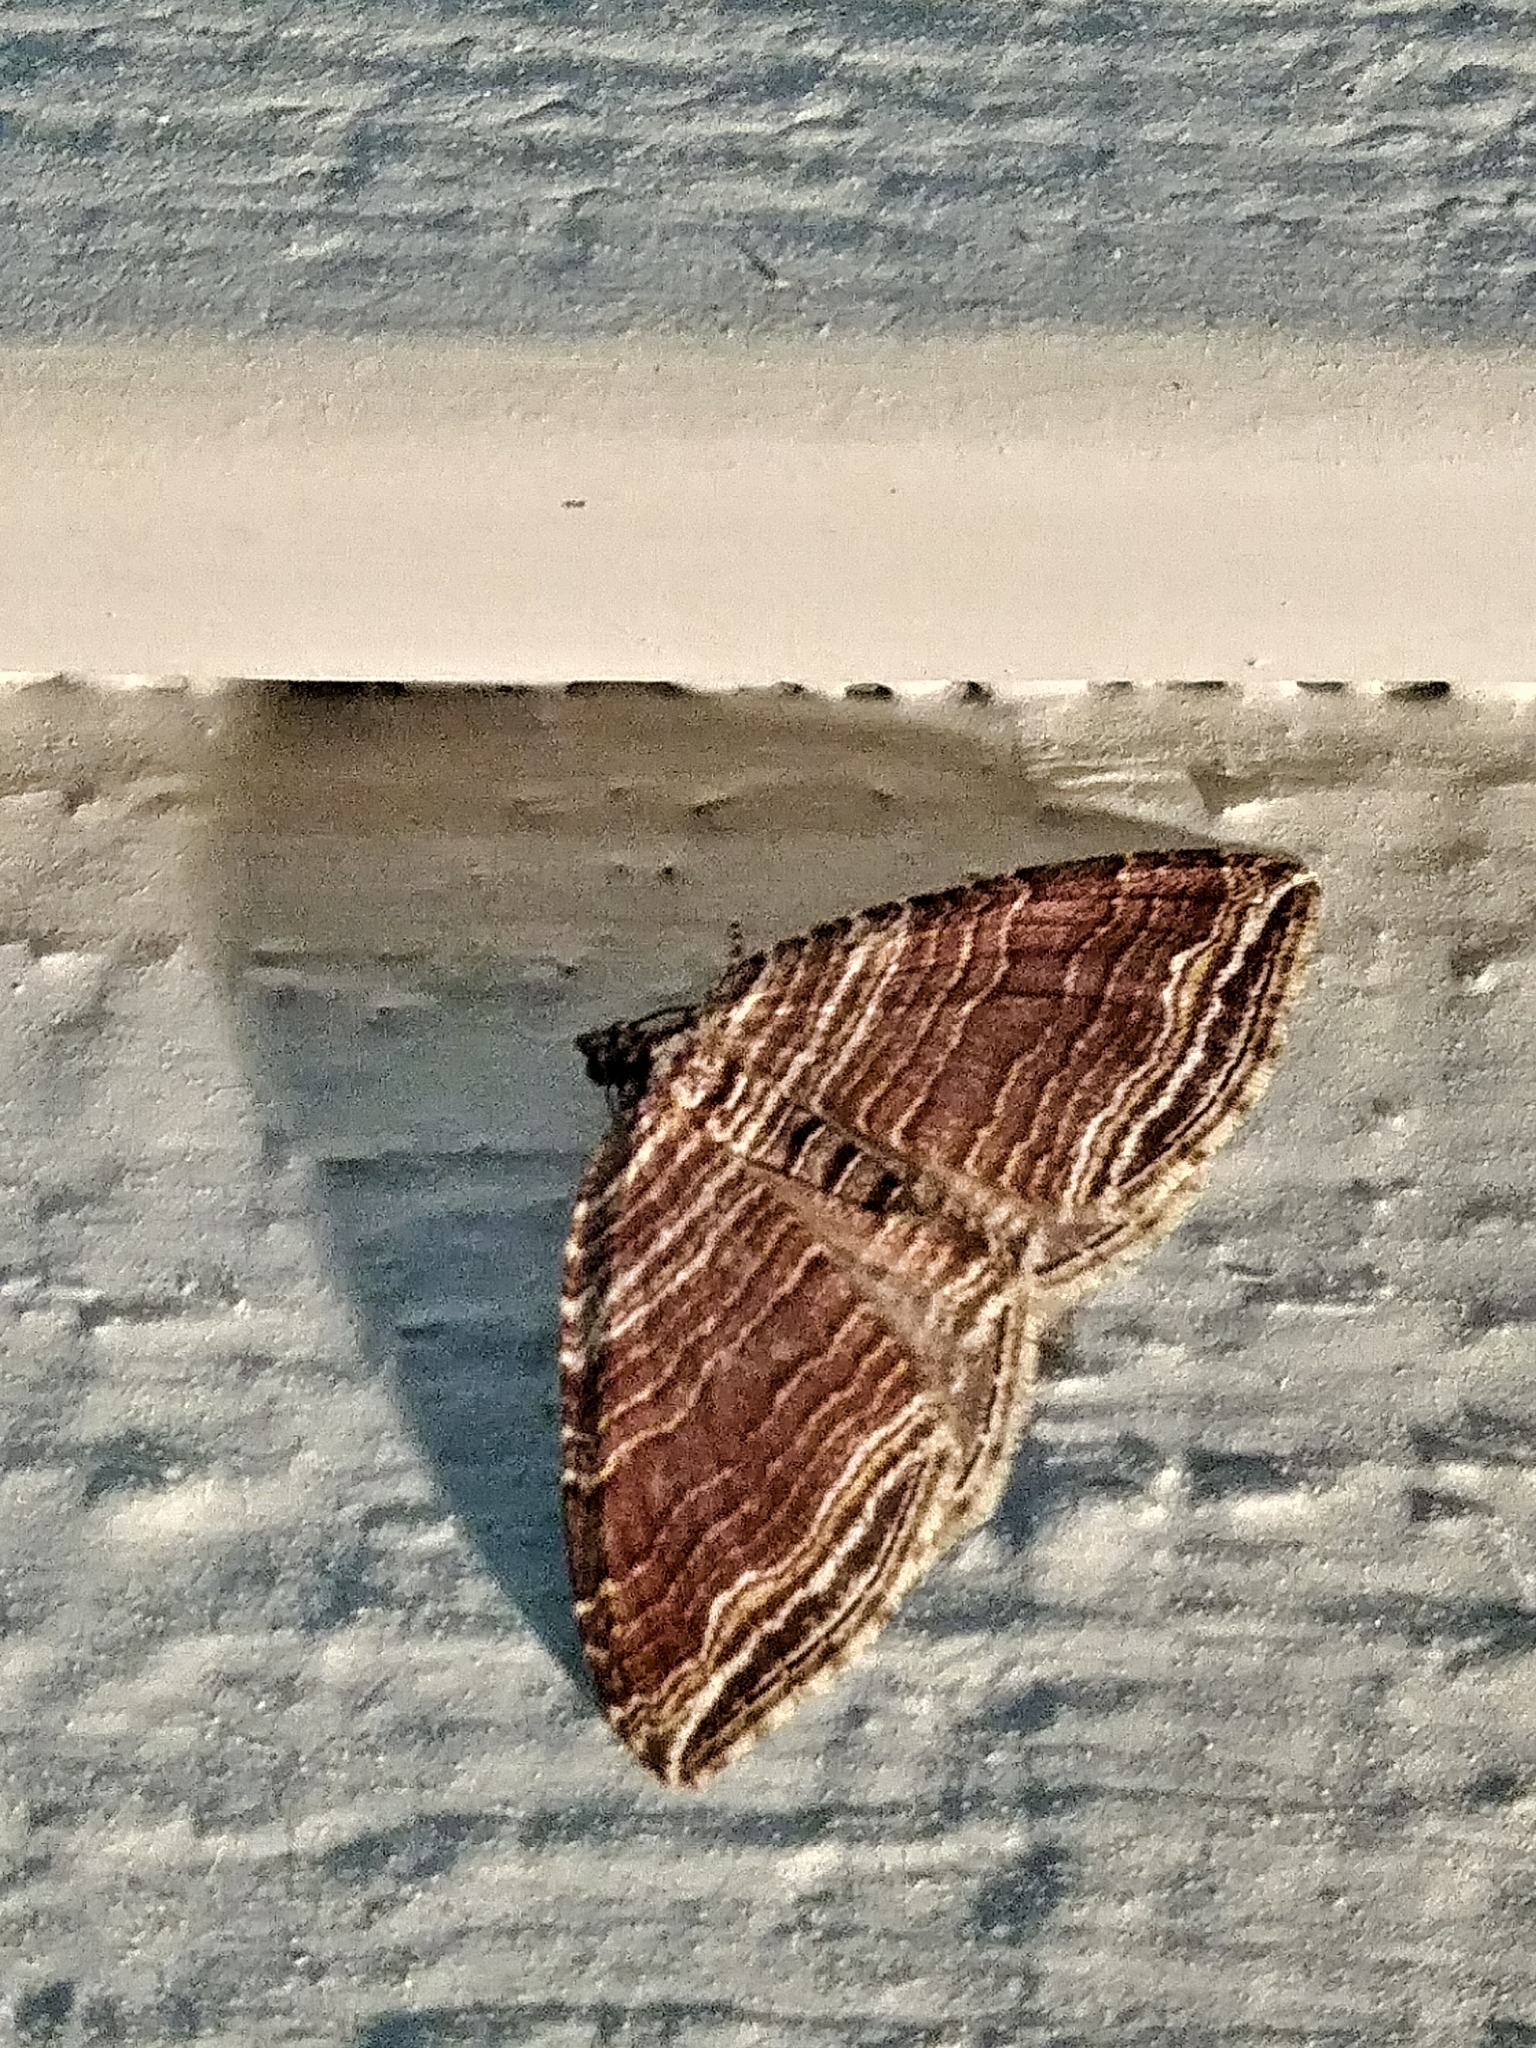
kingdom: Animalia
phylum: Arthropoda
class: Insecta
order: Lepidoptera
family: Geometridae
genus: Anticlea
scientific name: Anticlea multiferata
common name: Many-lined carpet
